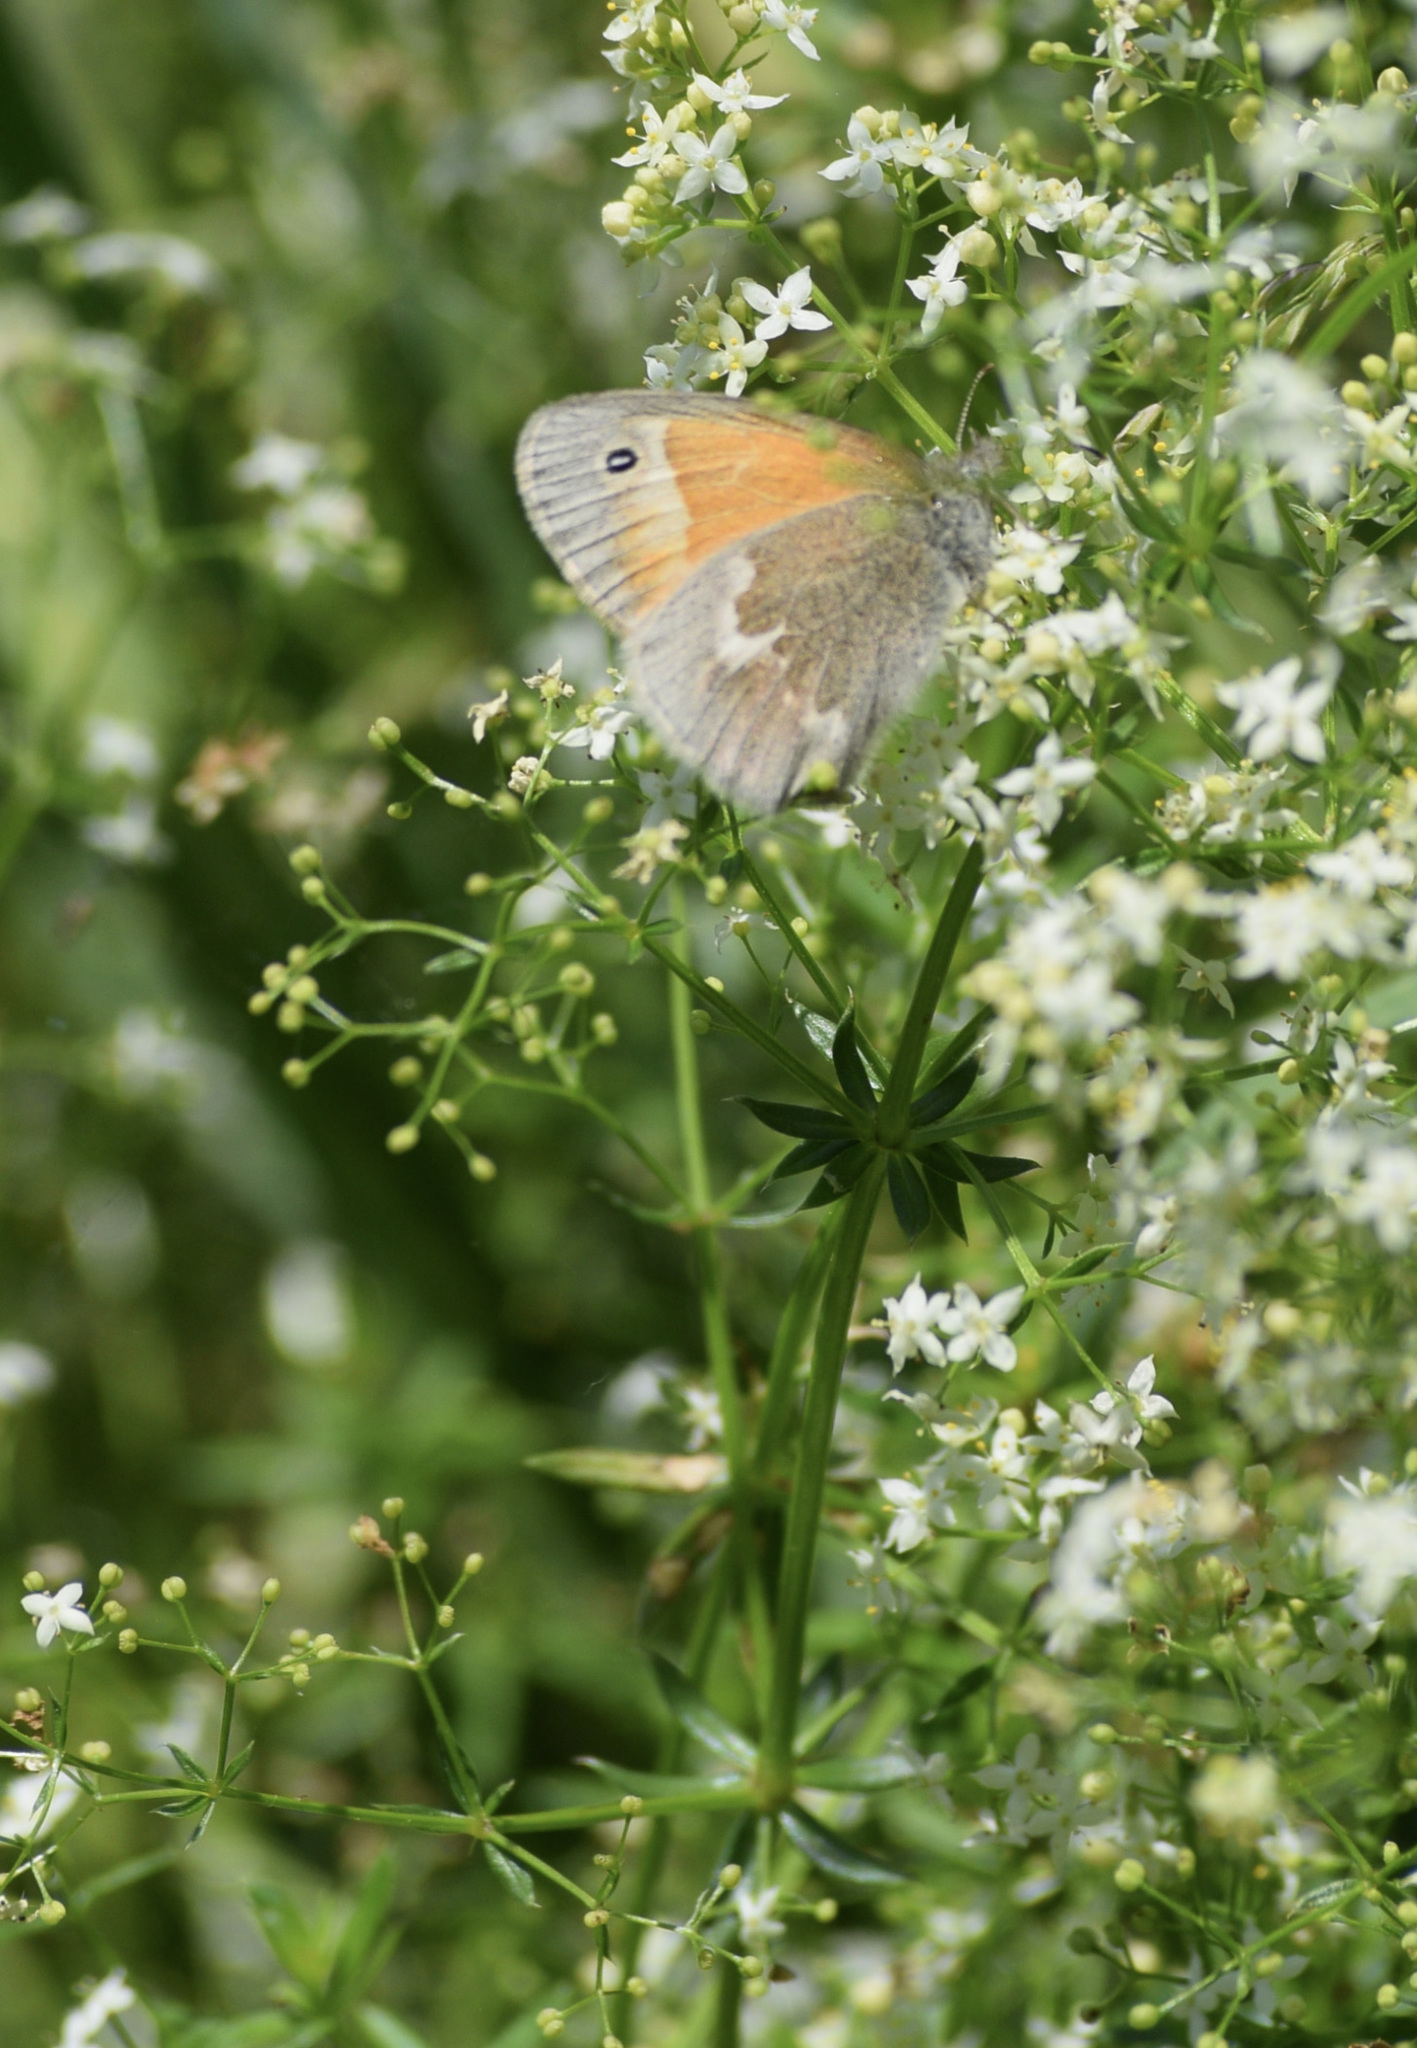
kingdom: Animalia
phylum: Arthropoda
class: Insecta
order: Lepidoptera
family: Nymphalidae
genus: Coenonympha
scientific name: Coenonympha california
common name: Common ringlet
